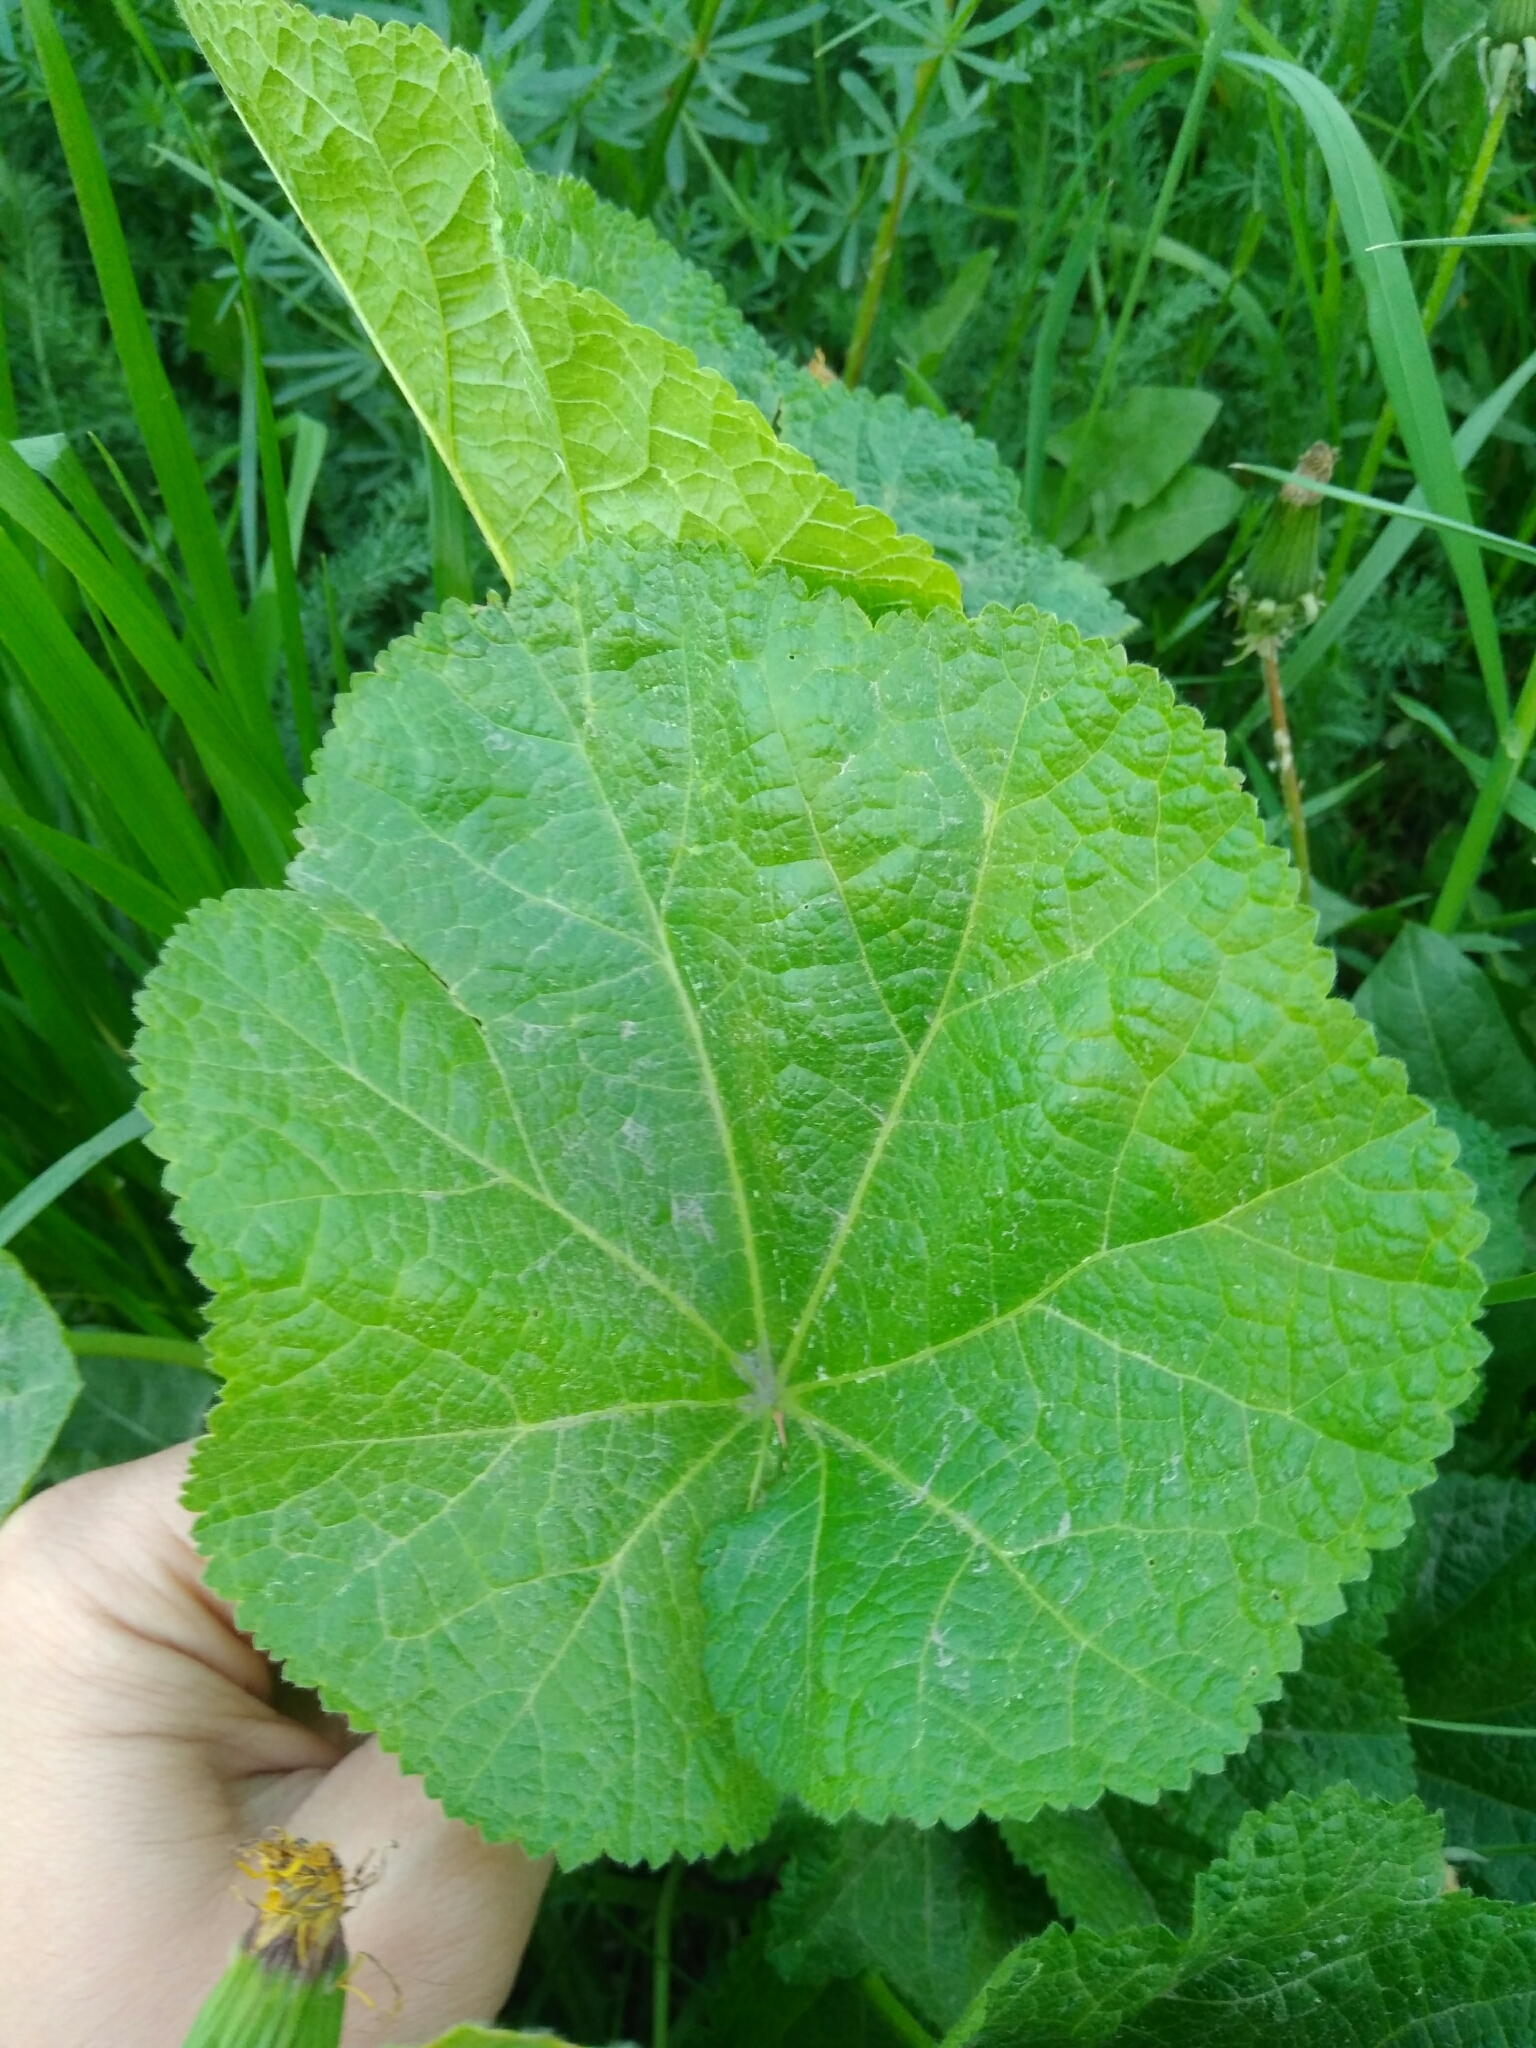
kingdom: Plantae
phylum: Tracheophyta
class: Magnoliopsida
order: Malvales
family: Malvaceae
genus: Alcea
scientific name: Alcea rosea
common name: Hollyhock
